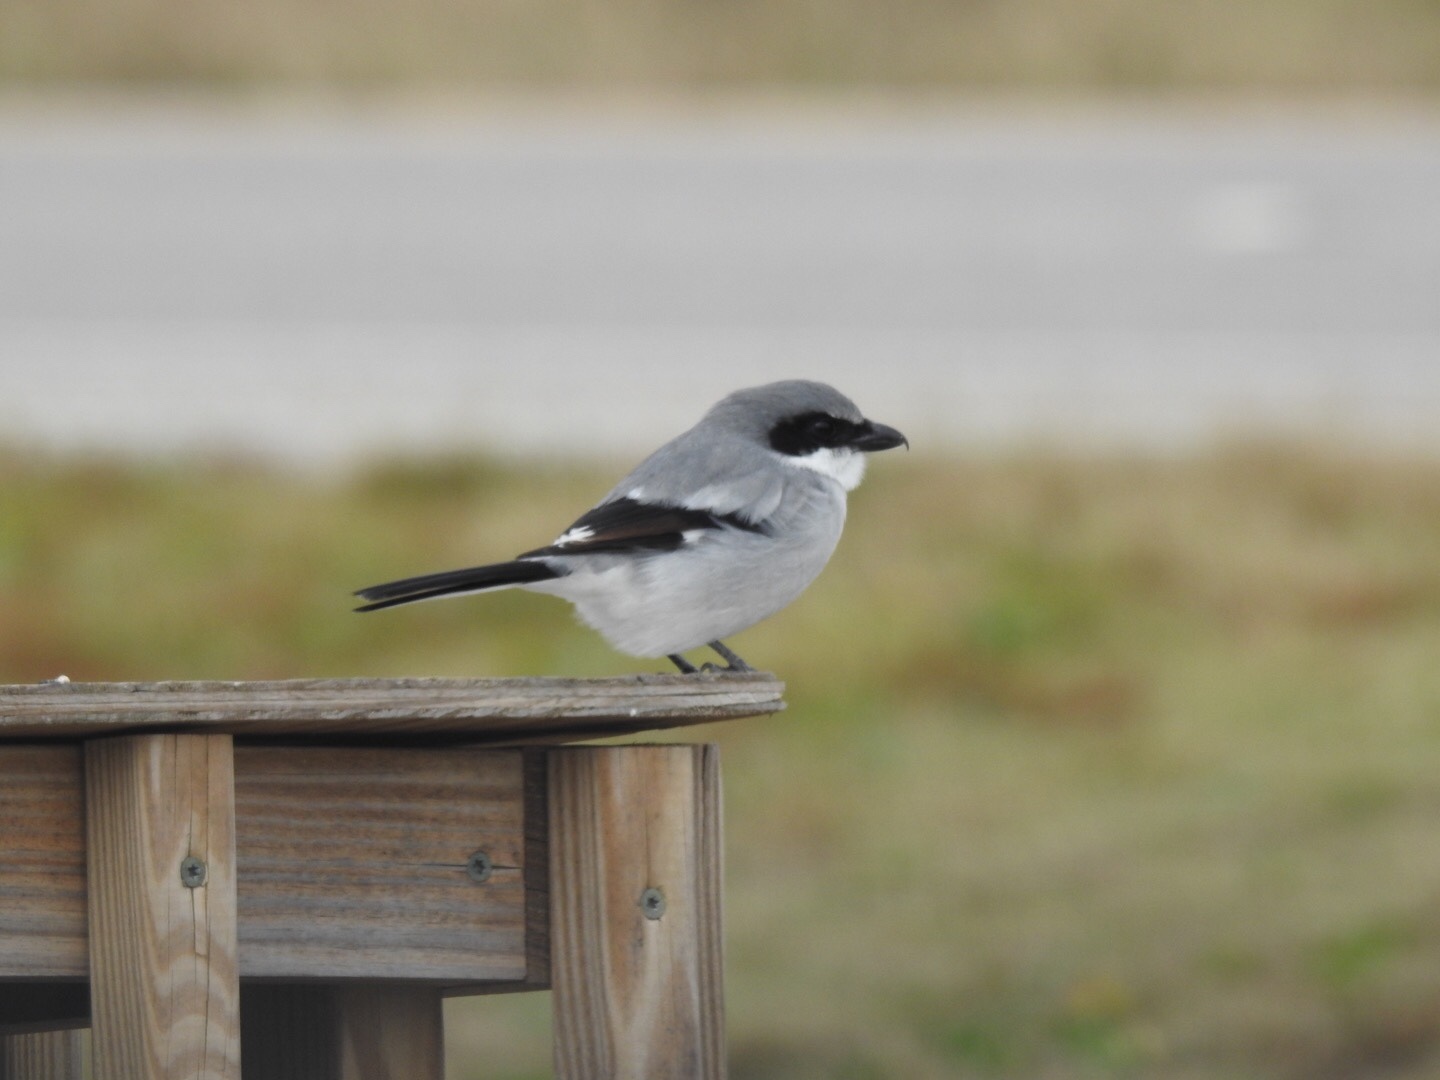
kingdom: Animalia
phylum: Chordata
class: Aves
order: Passeriformes
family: Laniidae
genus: Lanius
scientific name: Lanius ludovicianus
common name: Loggerhead shrike
